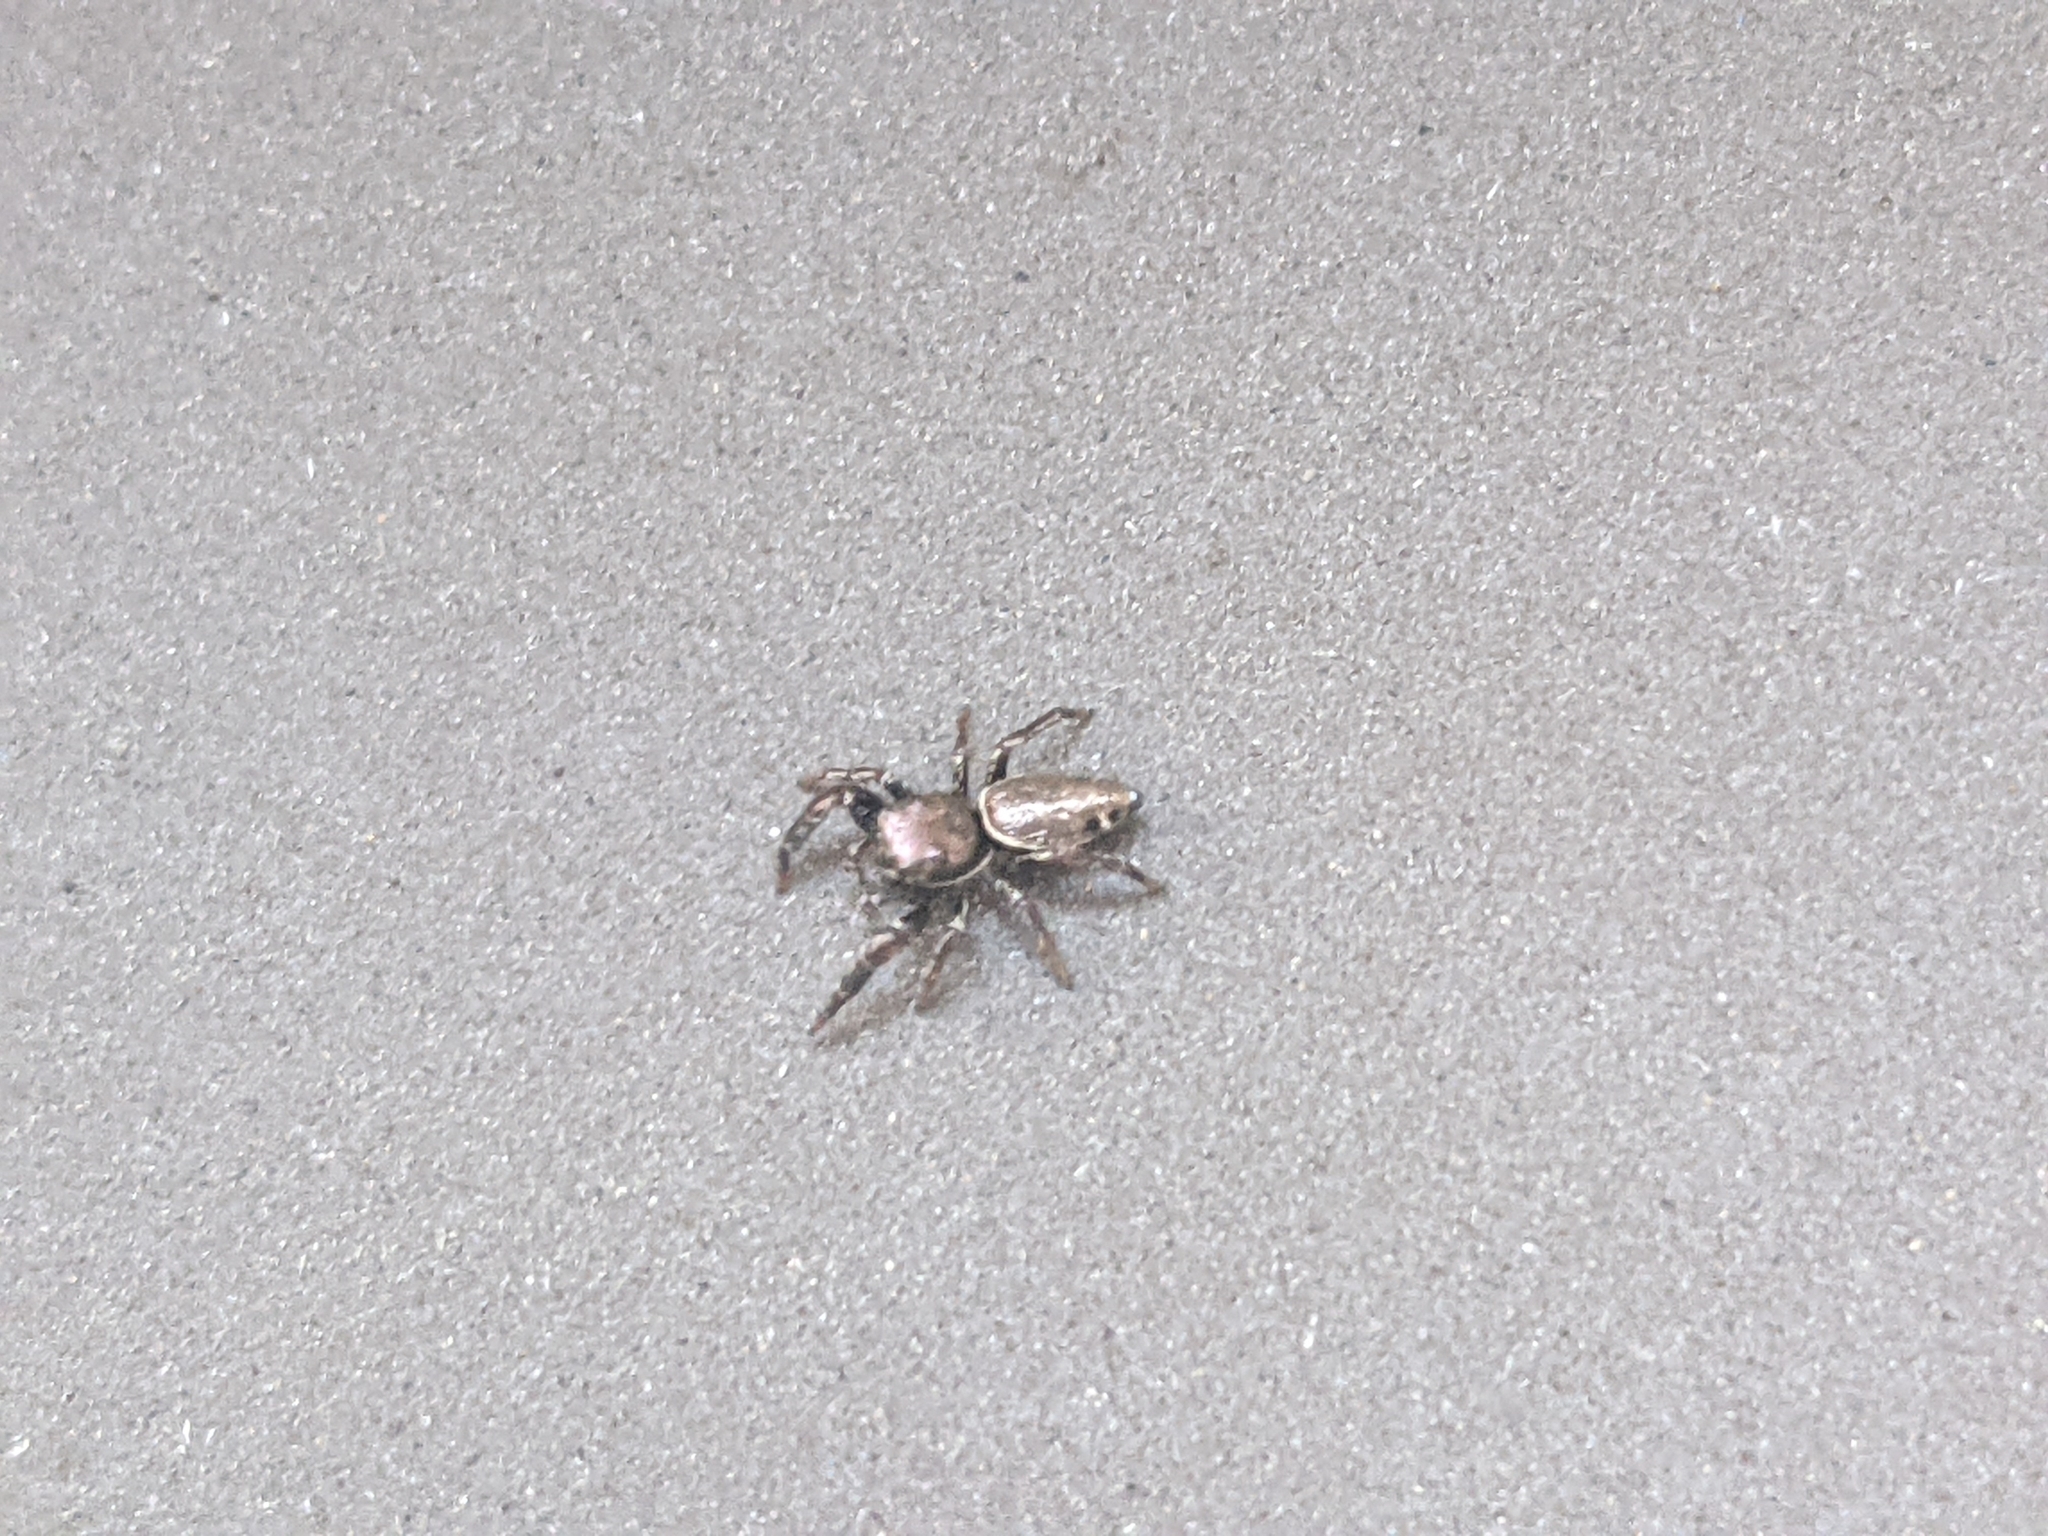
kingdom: Animalia
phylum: Arthropoda
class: Arachnida
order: Araneae
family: Salticidae
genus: Sassacus
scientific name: Sassacus vitis
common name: Jumping spiders
